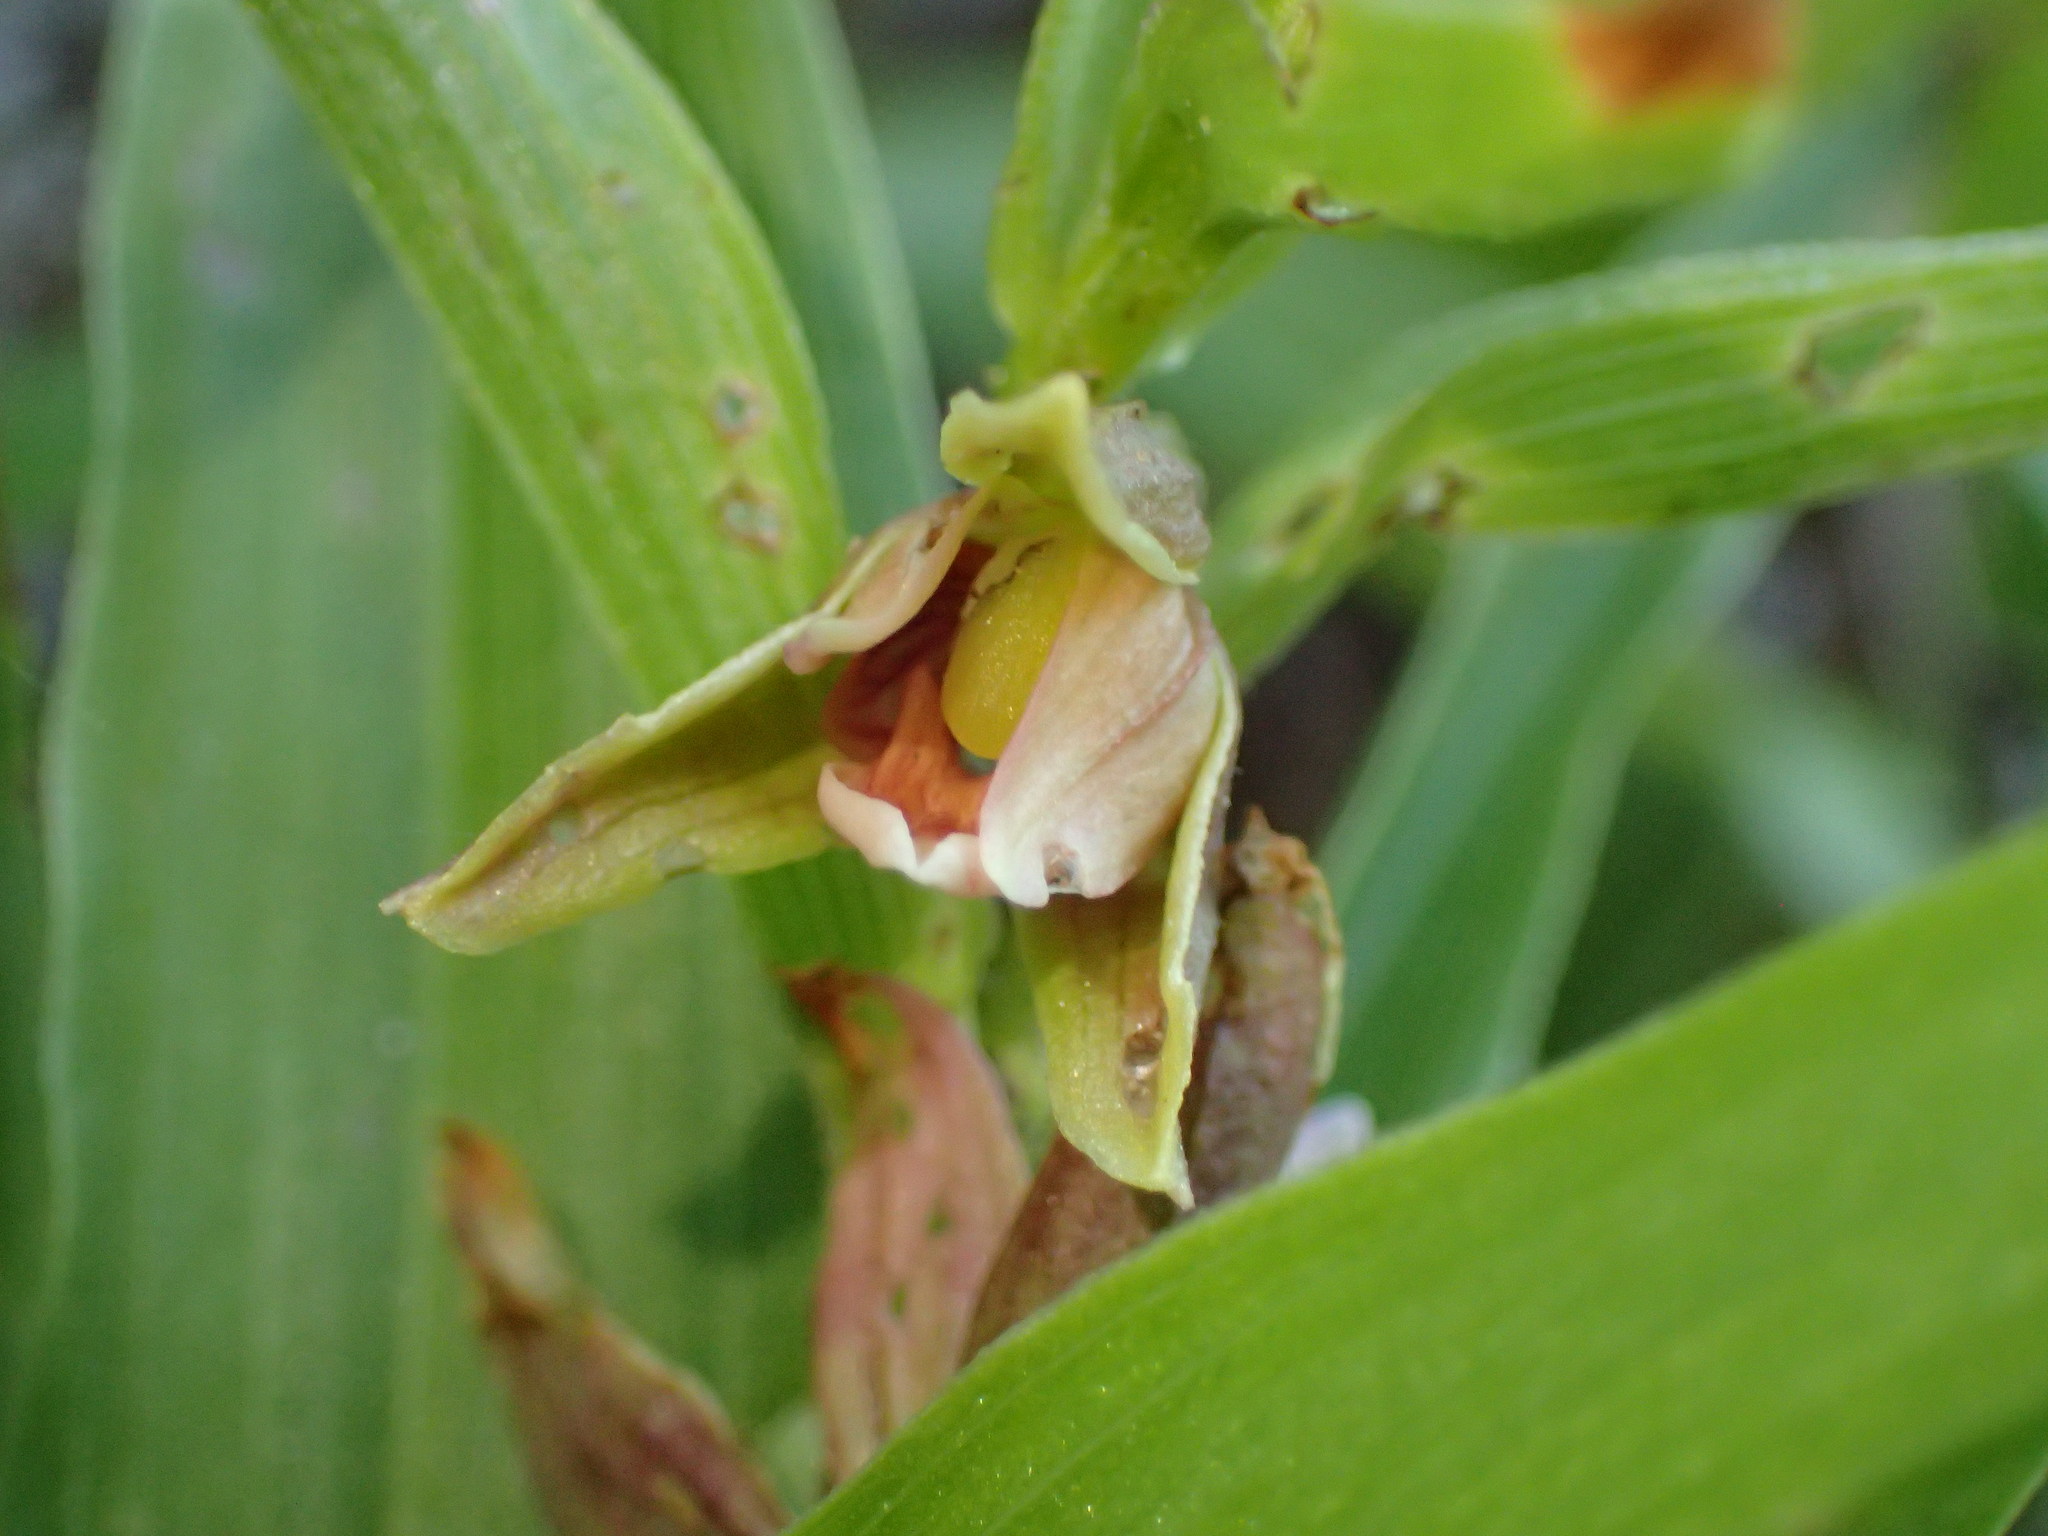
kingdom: Plantae
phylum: Tracheophyta
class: Liliopsida
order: Asparagales
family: Orchidaceae
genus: Epipactis
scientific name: Epipactis gigantea
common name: Chatterbox
